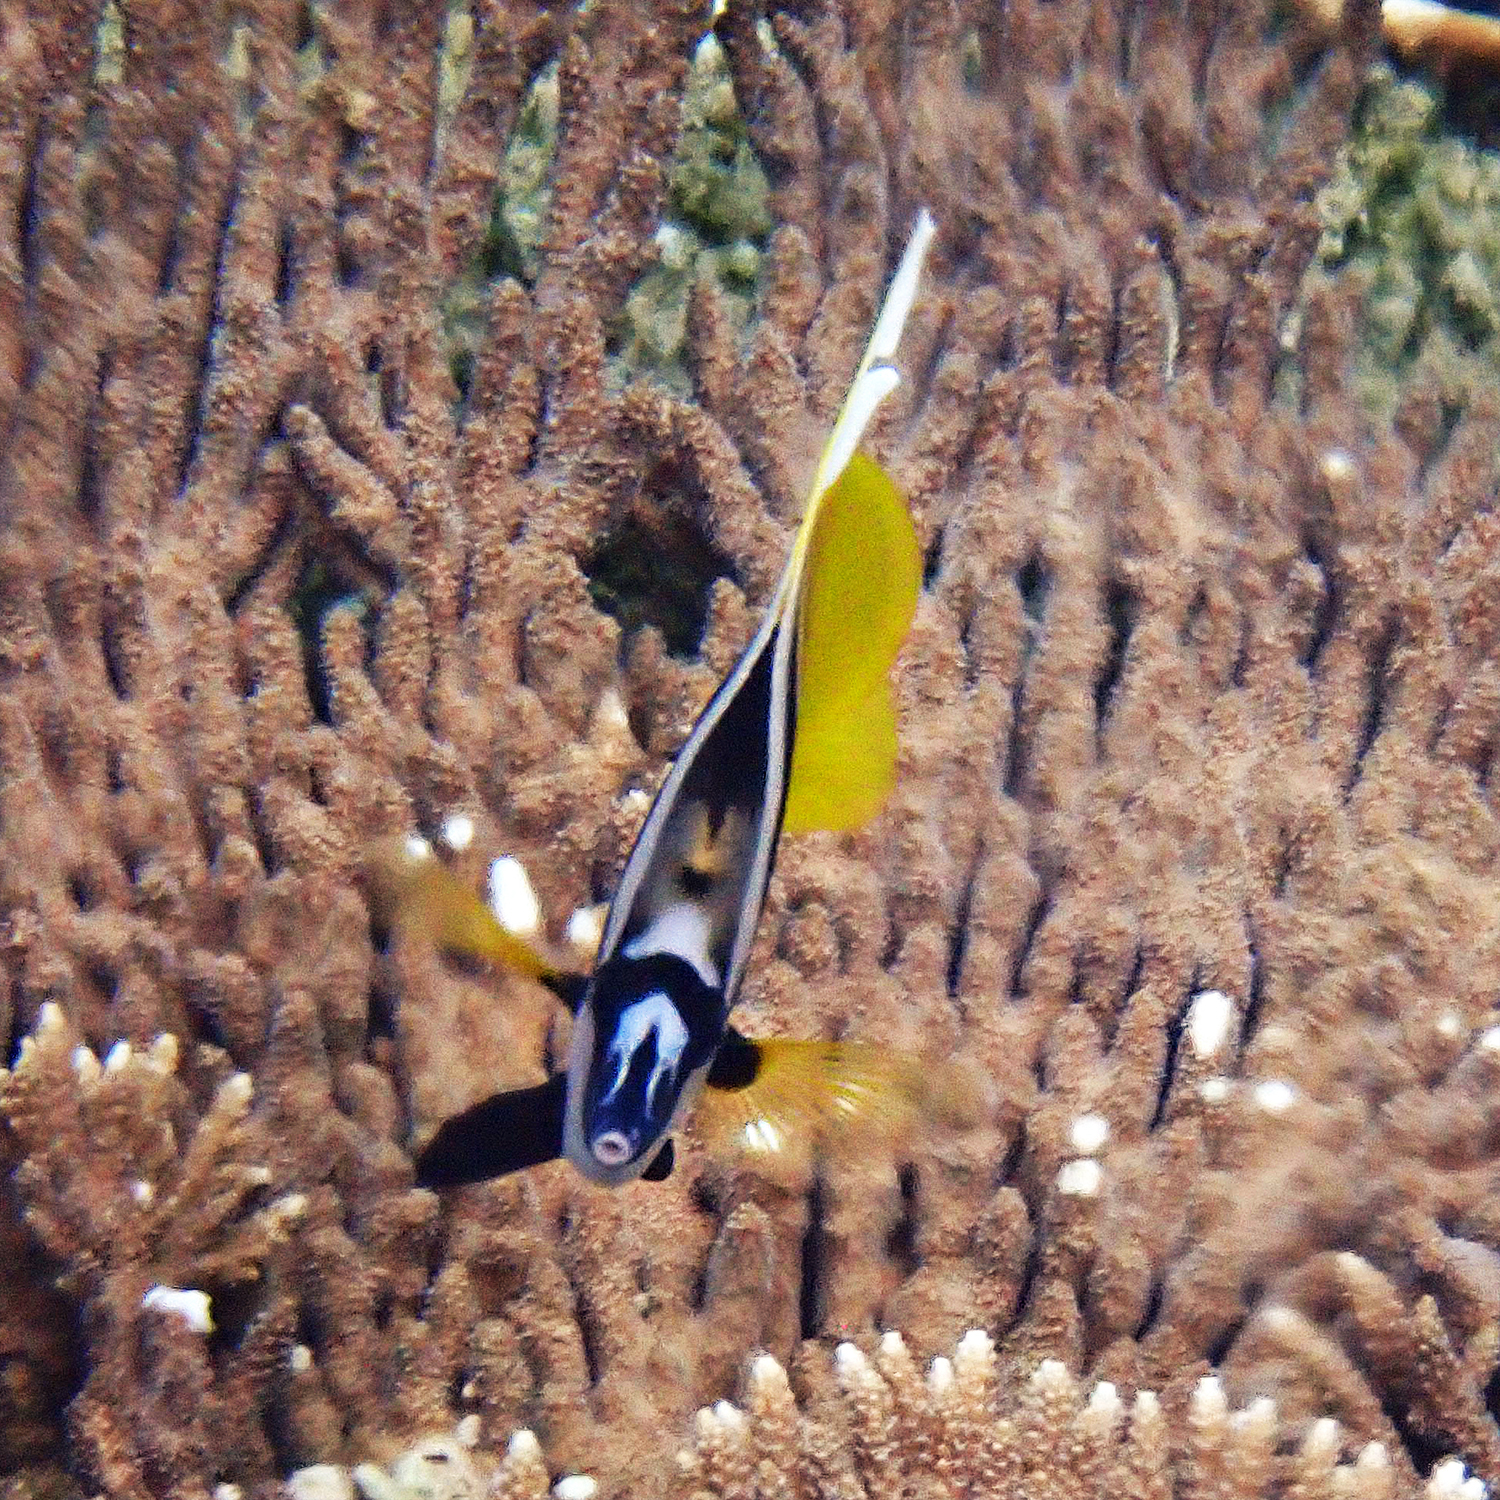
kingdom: Animalia
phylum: Chordata
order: Perciformes
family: Chaetodontidae
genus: Heniochus
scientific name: Heniochus monoceros
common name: Masked bannerfish
